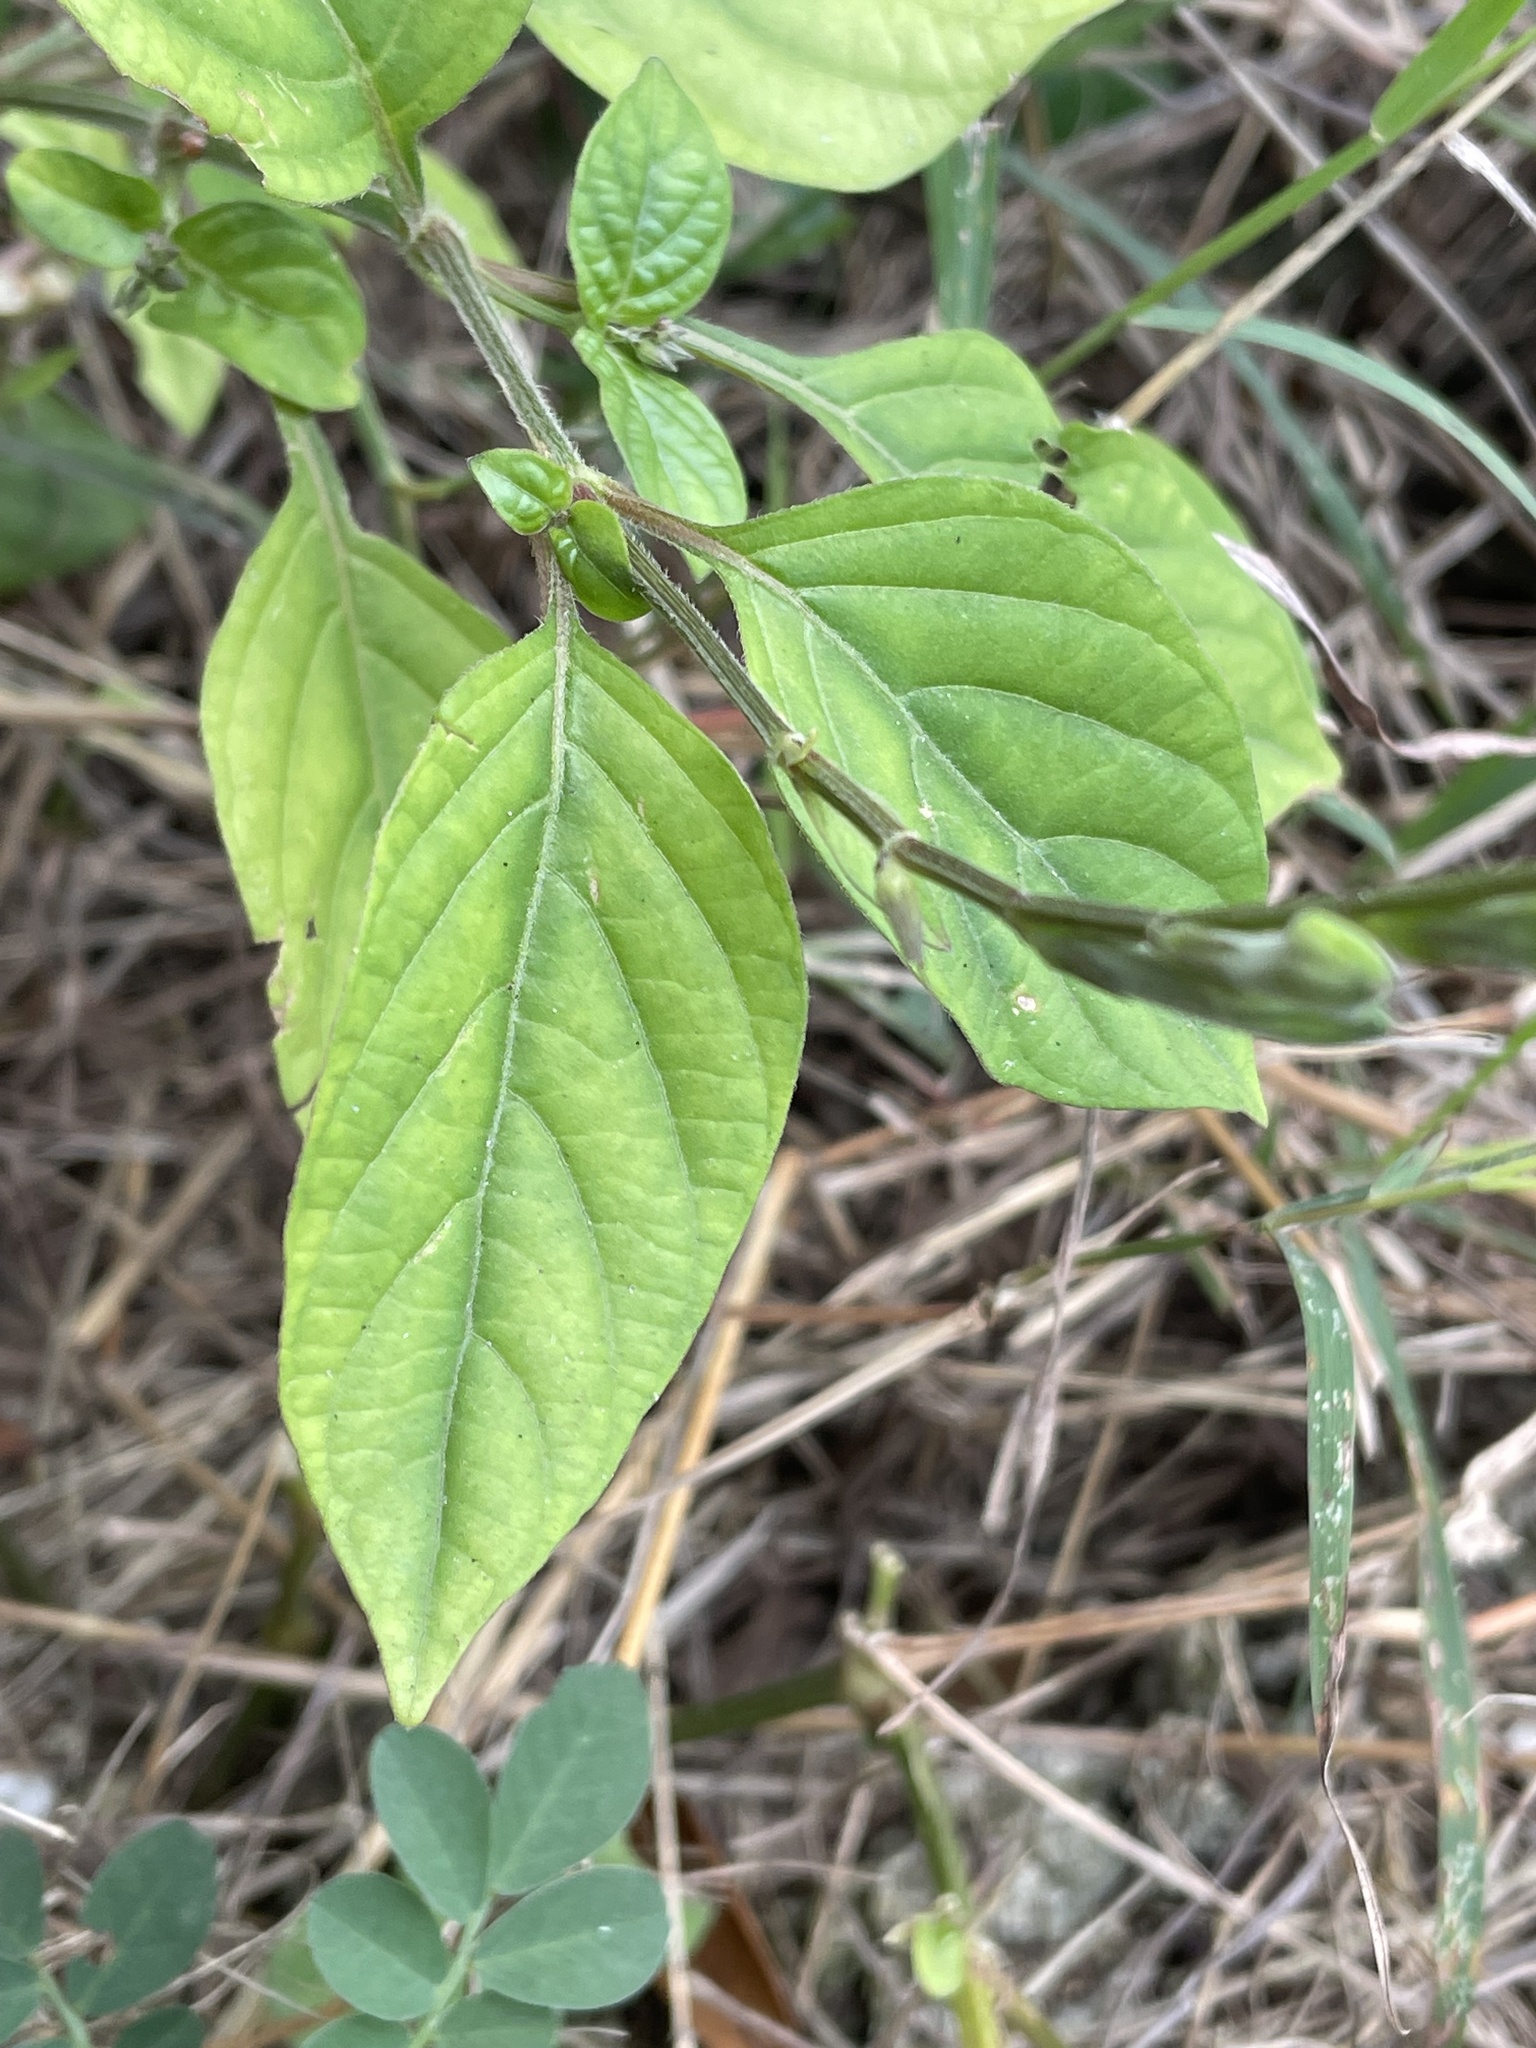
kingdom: Plantae
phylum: Tracheophyta
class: Magnoliopsida
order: Lamiales
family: Acanthaceae
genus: Asystasia
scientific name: Asystasia intrusa
